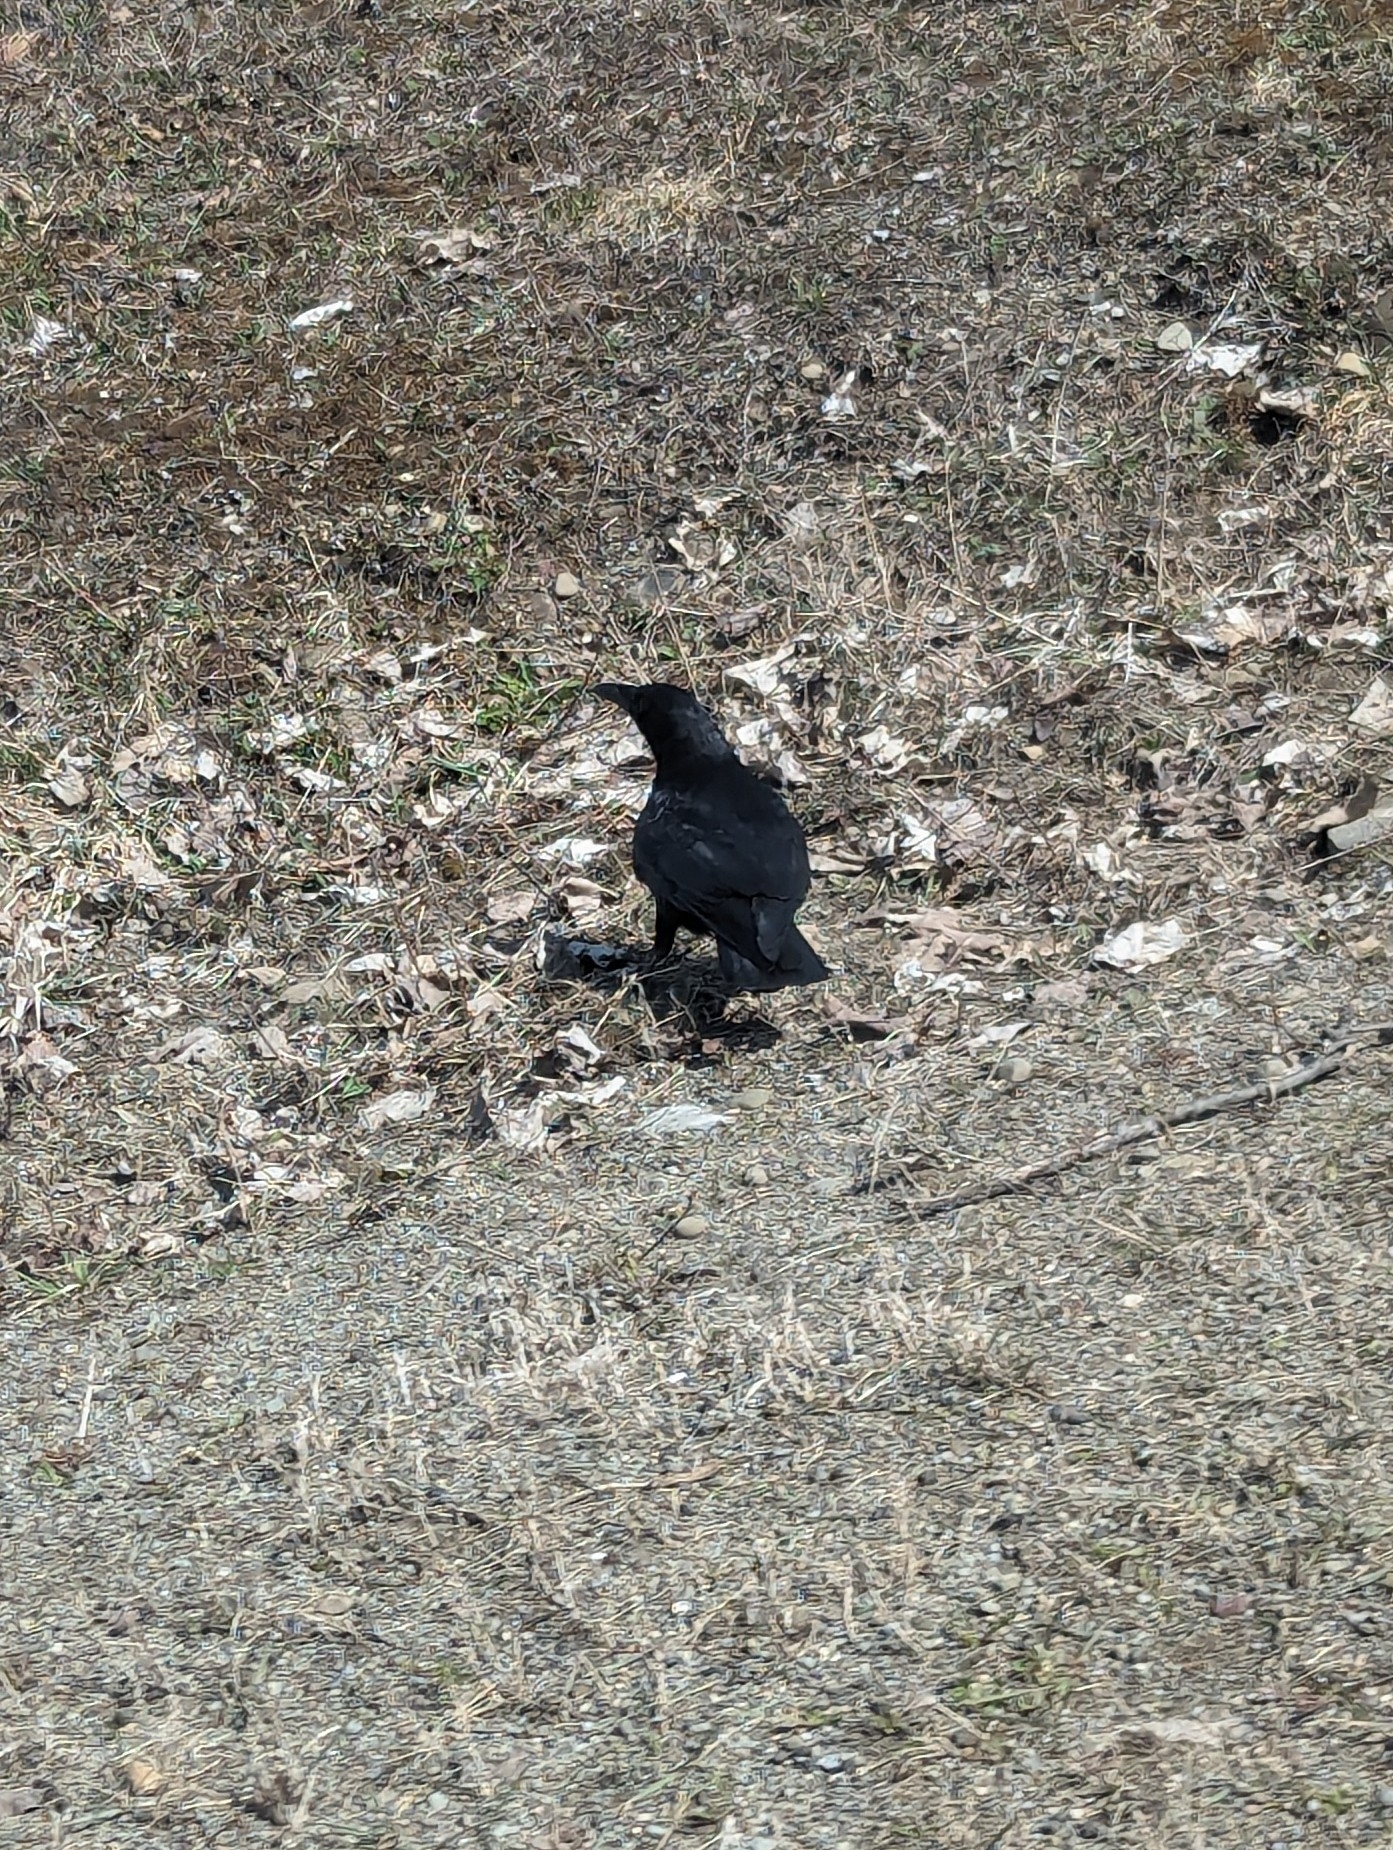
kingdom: Animalia
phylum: Chordata
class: Aves
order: Passeriformes
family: Corvidae
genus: Corvus
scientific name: Corvus brachyrhynchos
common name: American crow
